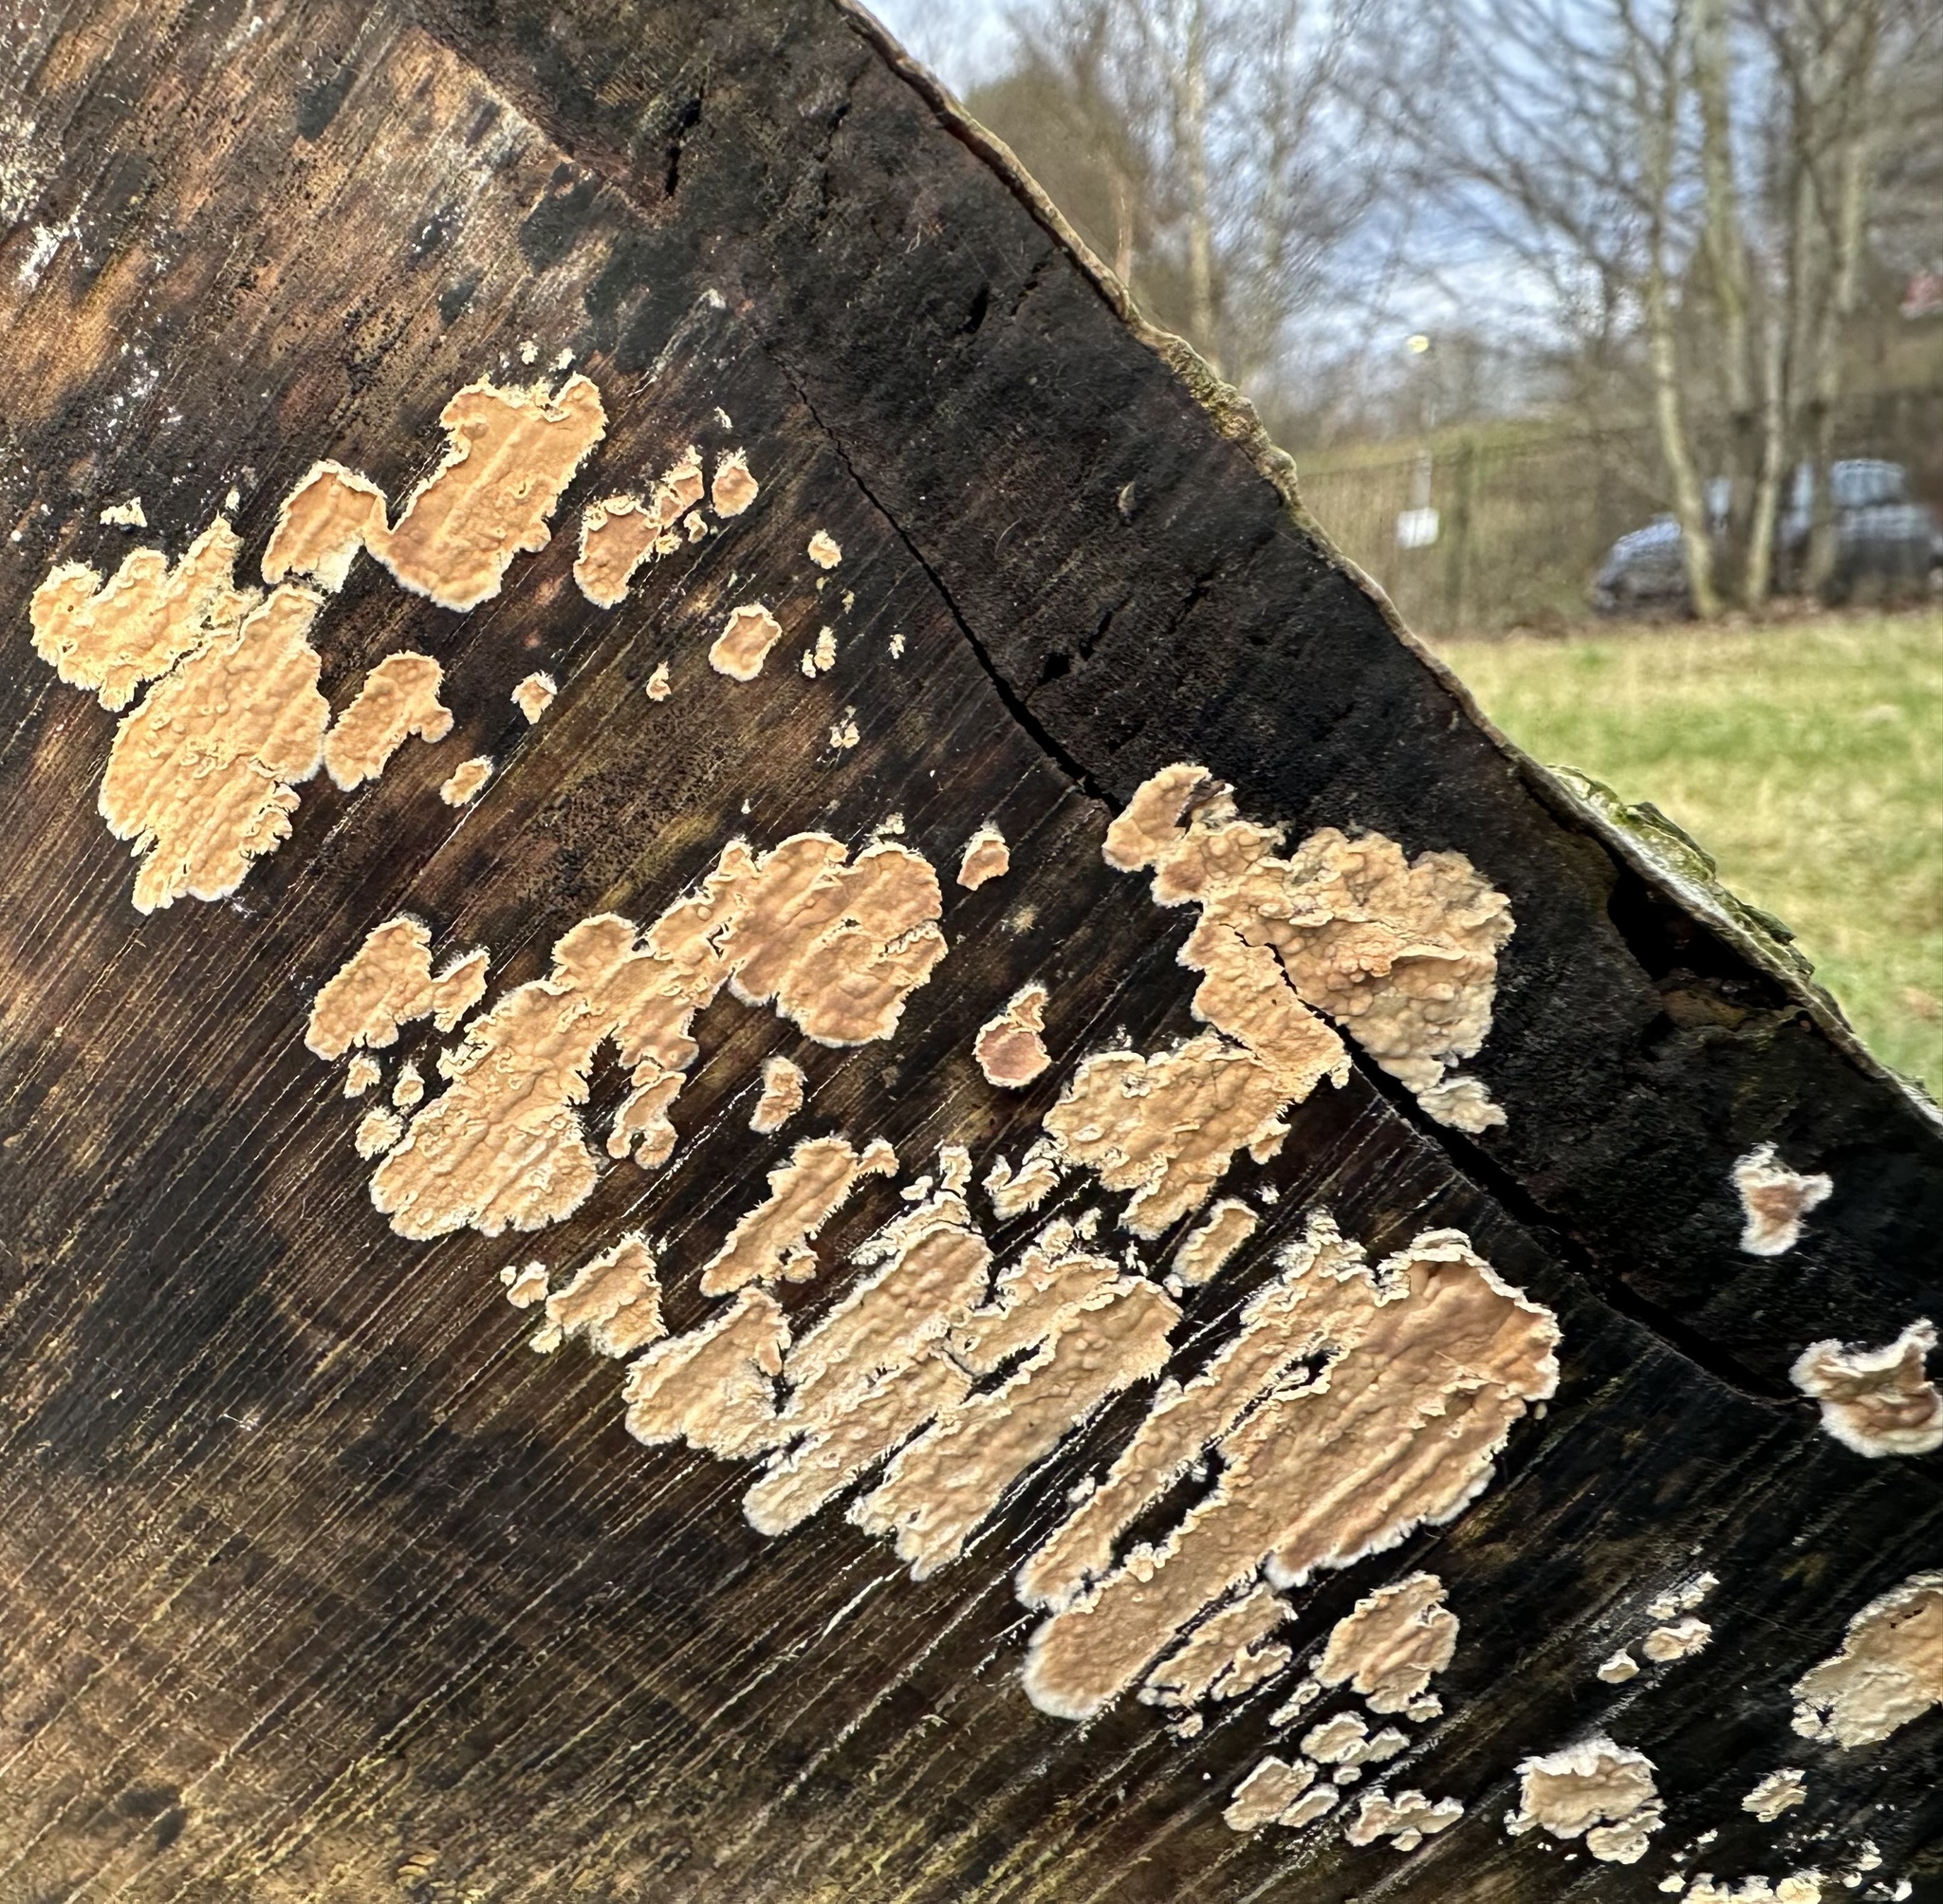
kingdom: Fungi
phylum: Basidiomycota
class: Agaricomycetes
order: Russulales
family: Peniophoraceae
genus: Peniophora
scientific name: Peniophora incarnata
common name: Rosy crust
